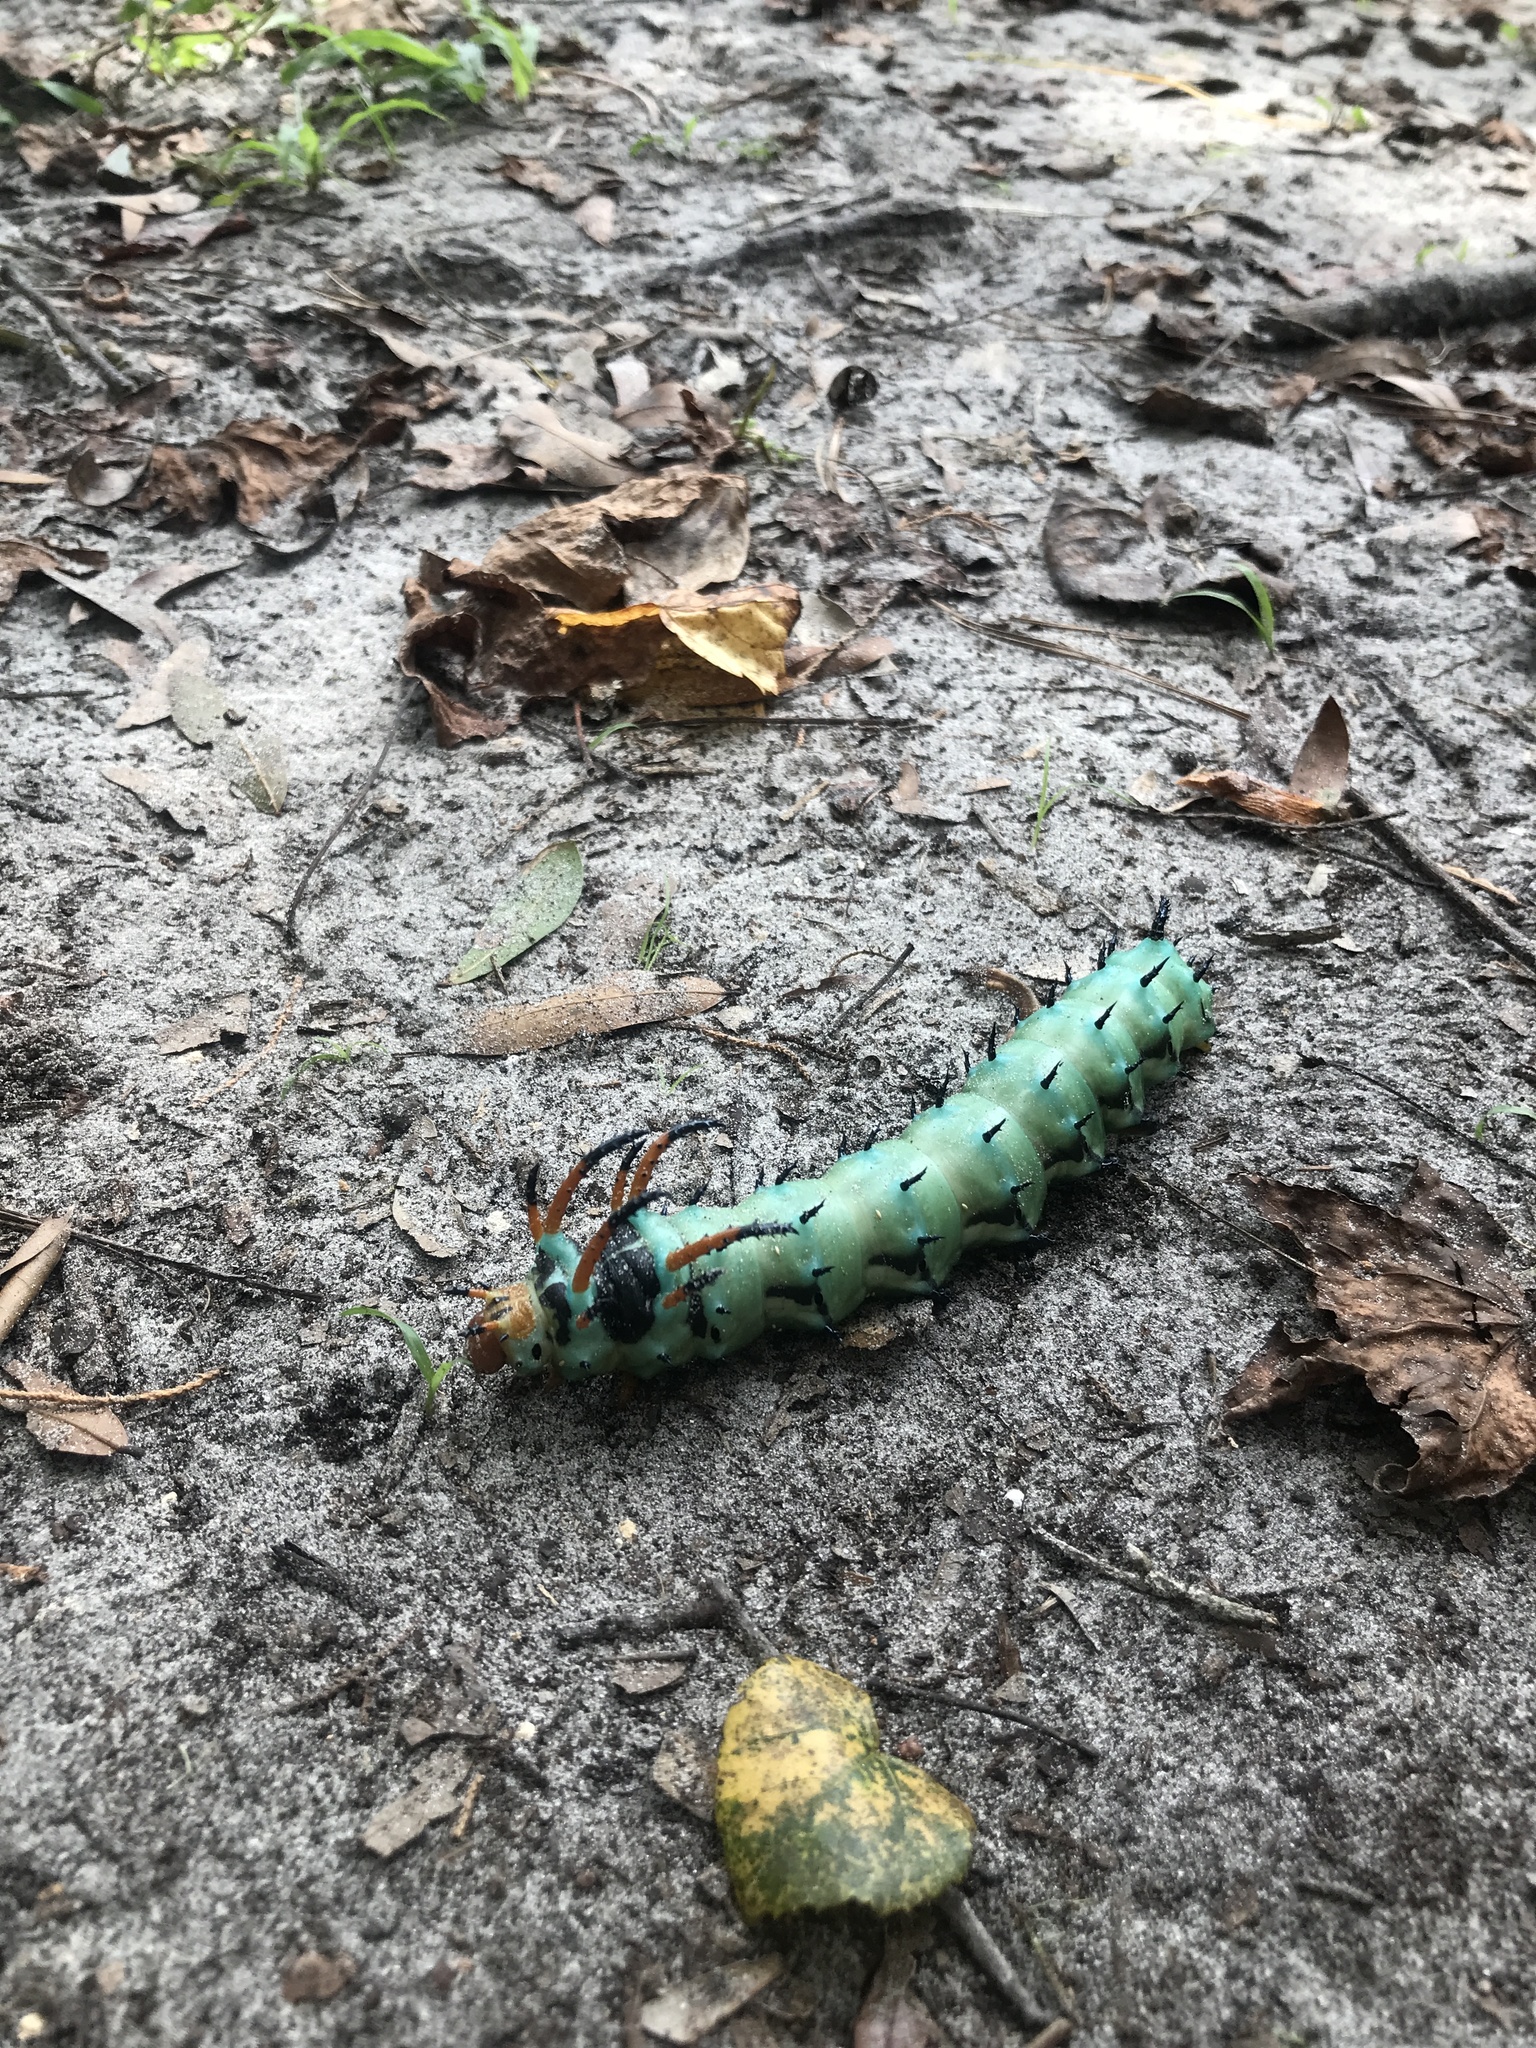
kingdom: Animalia
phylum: Arthropoda
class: Insecta
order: Lepidoptera
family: Saturniidae
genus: Citheronia
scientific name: Citheronia regalis
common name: Hickory horned devil
